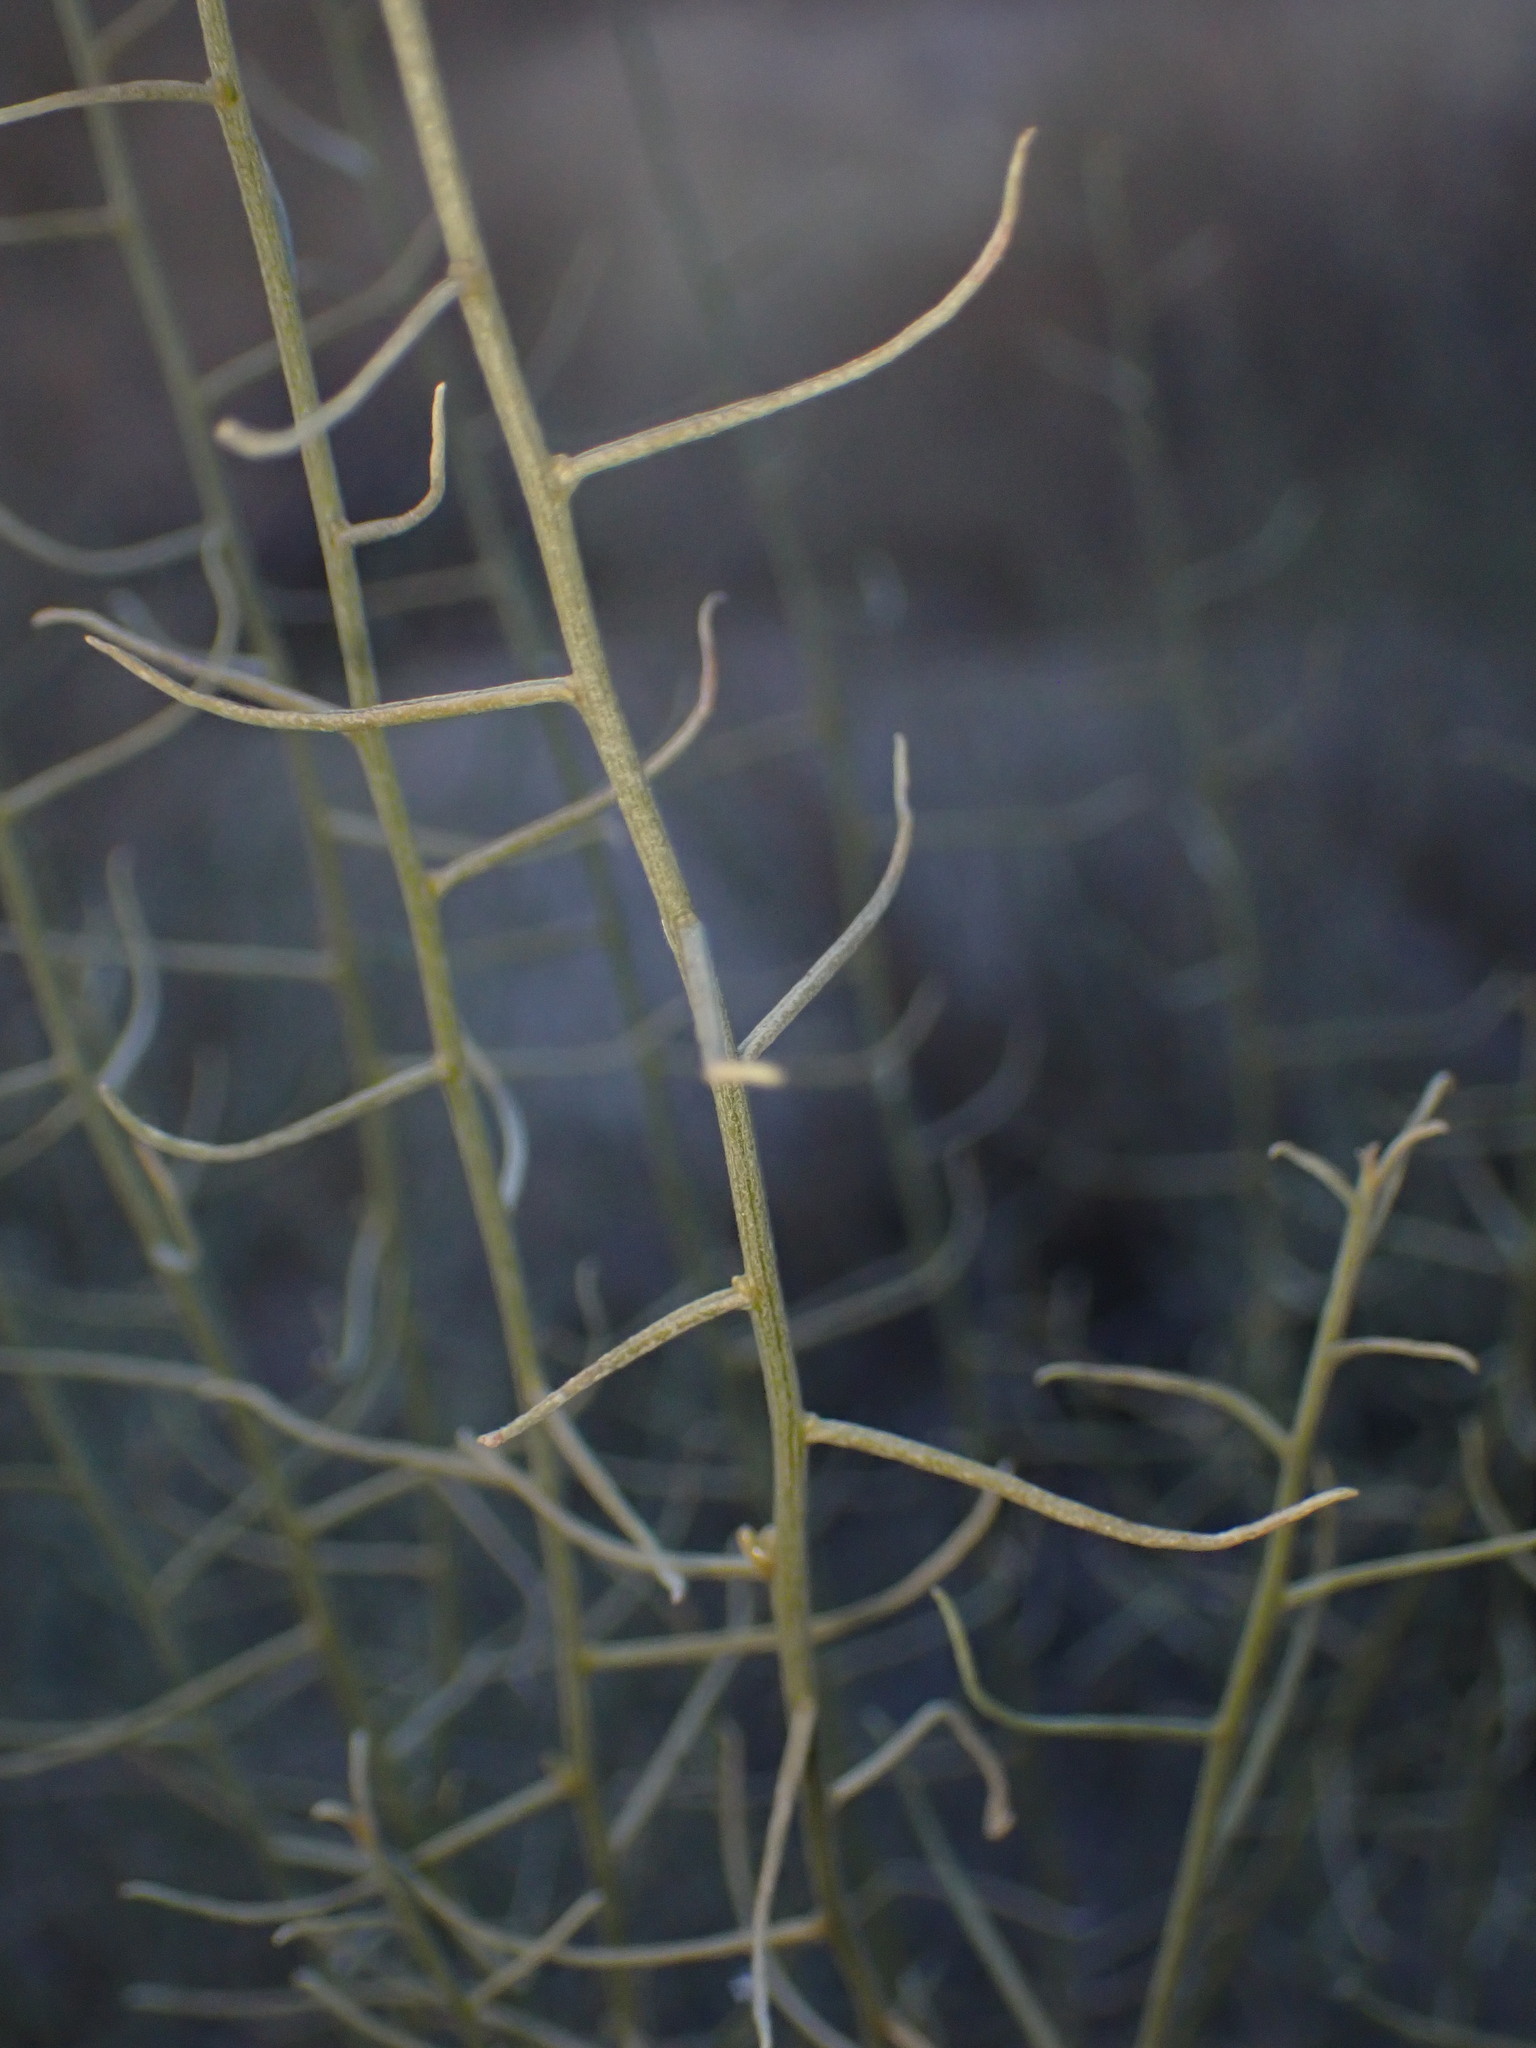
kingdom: Plantae
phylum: Tracheophyta
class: Magnoliopsida
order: Asterales
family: Asteraceae
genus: Gutierrezia
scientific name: Gutierrezia microcephala
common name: Thread snakeweed
